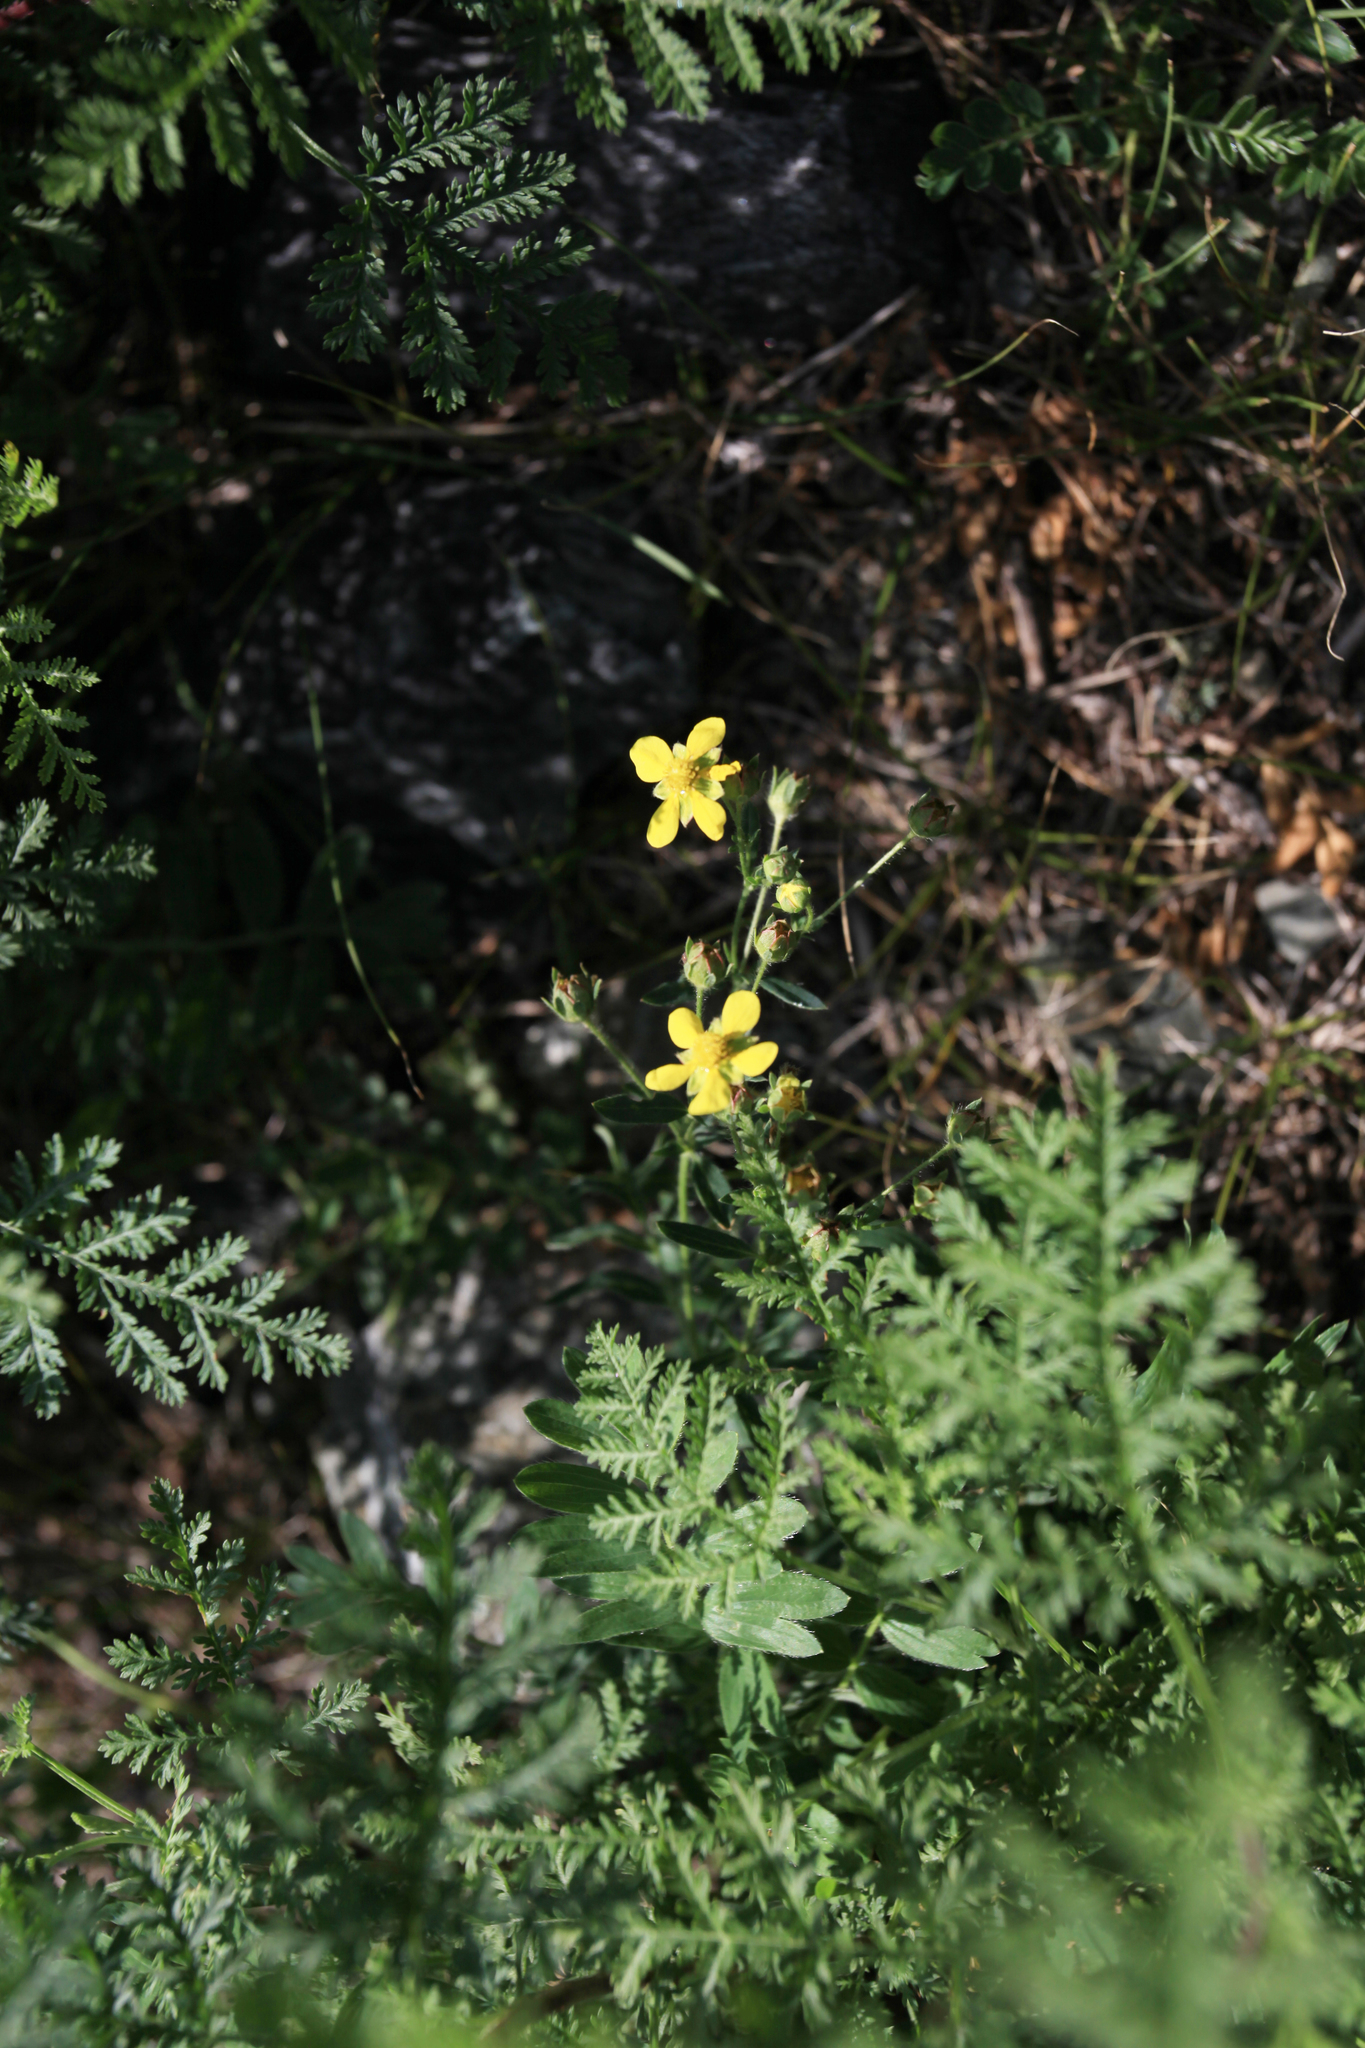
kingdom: Plantae
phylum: Tracheophyta
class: Magnoliopsida
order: Rosales
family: Rosaceae
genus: Sibbaldianthe
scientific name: Sibbaldianthe bifurca
